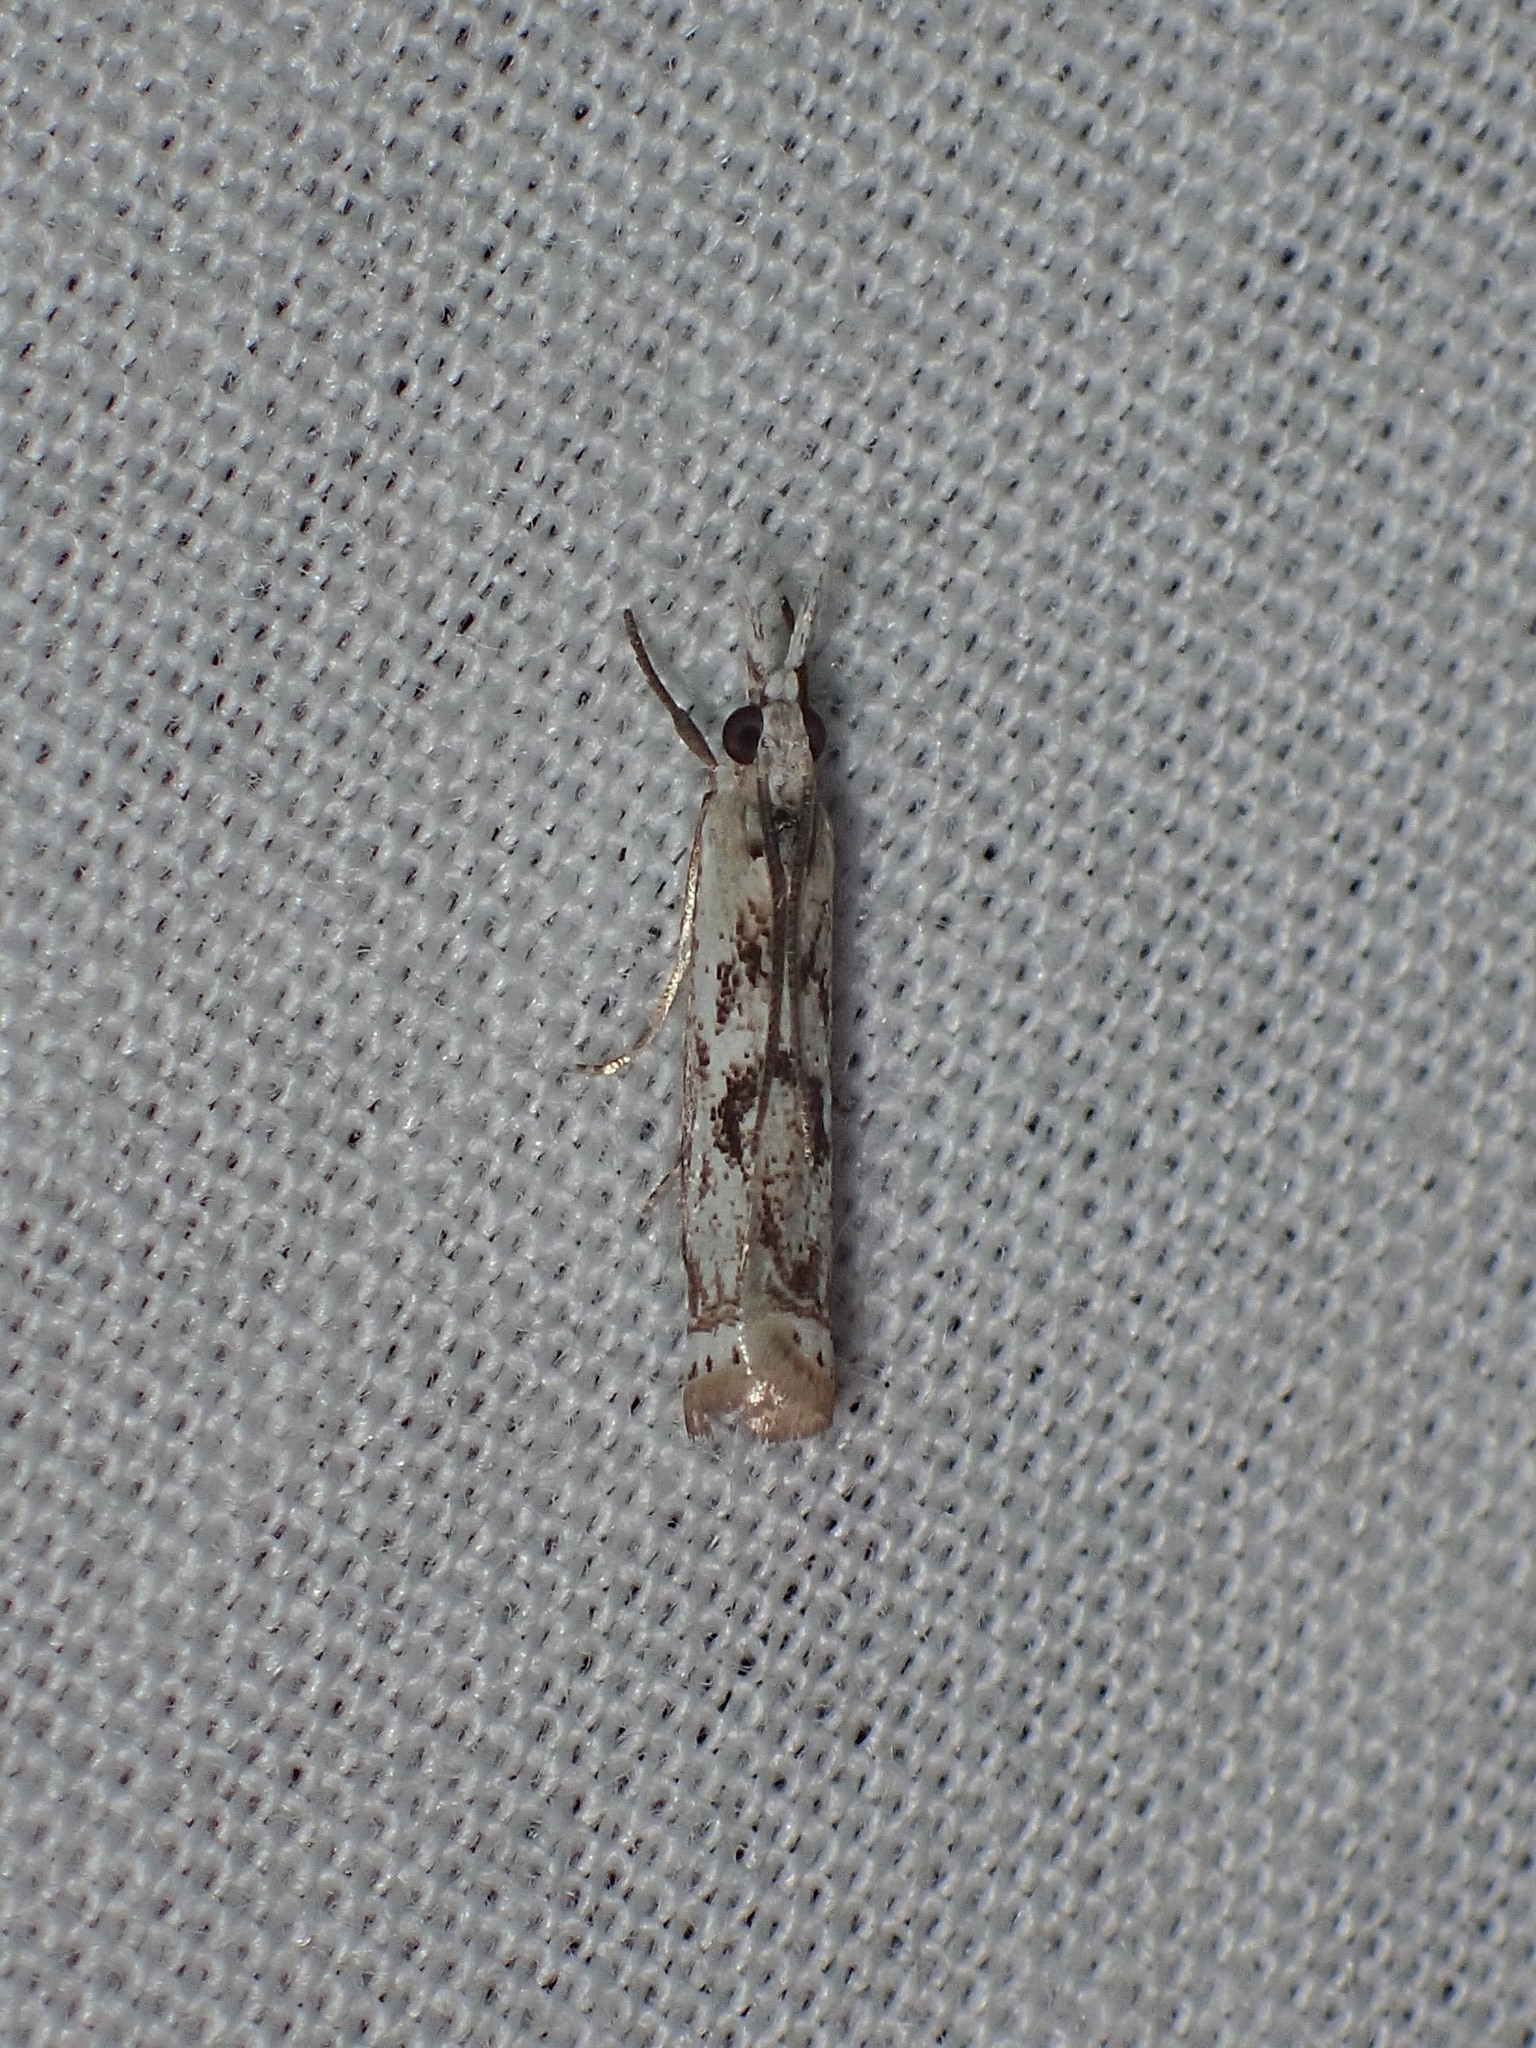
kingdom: Animalia
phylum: Arthropoda
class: Insecta
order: Lepidoptera
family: Crambidae
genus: Microcrambus
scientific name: Microcrambus elegans
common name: Elegant grass-veneer
